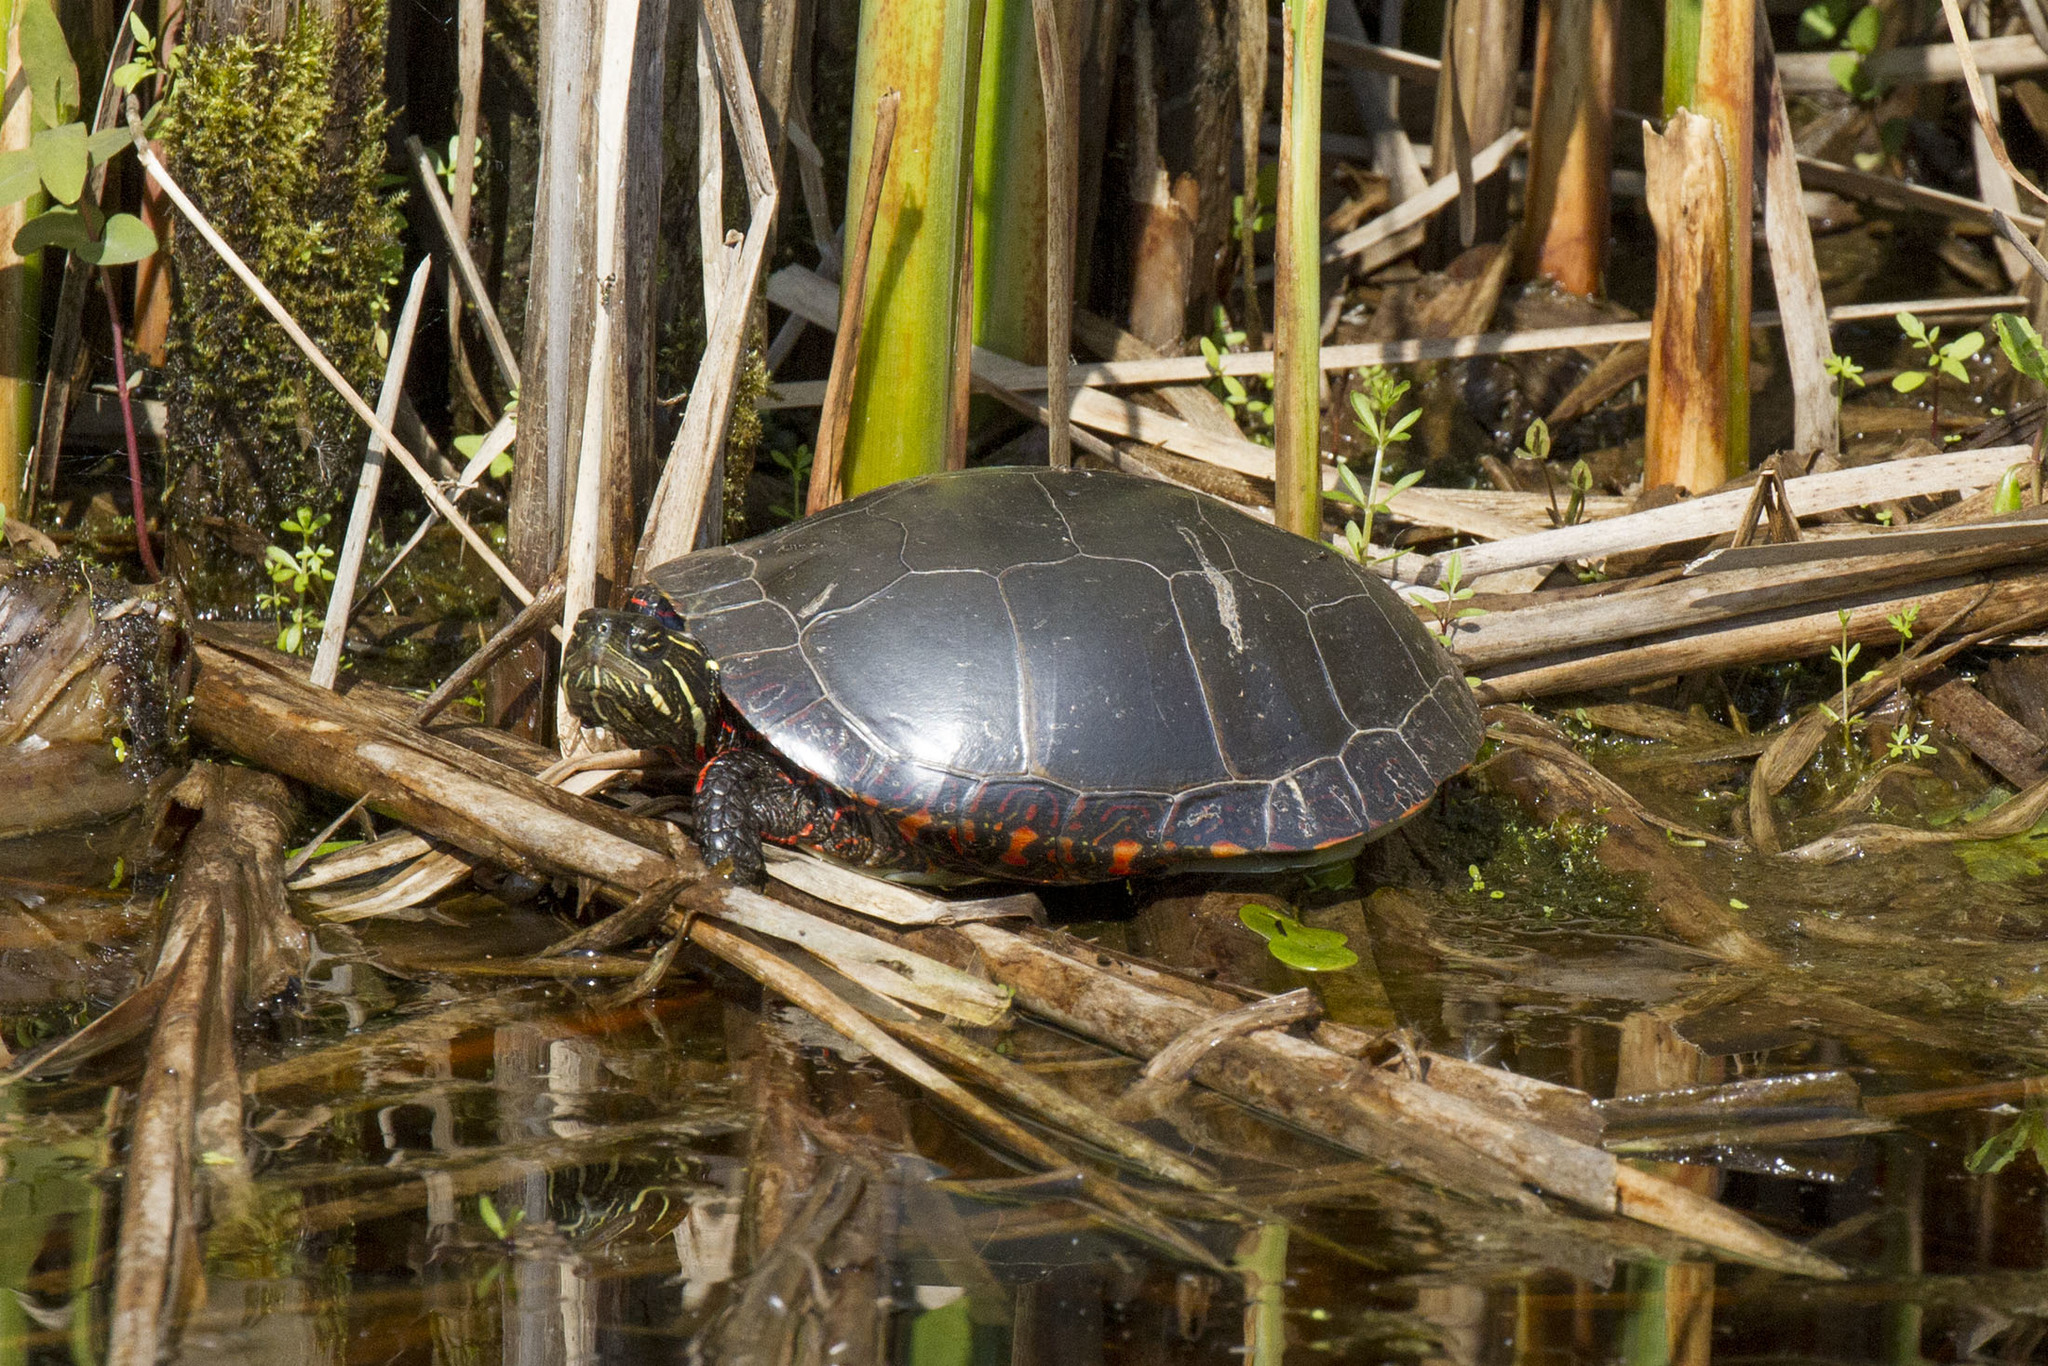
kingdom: Animalia
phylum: Chordata
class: Testudines
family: Emydidae
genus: Chrysemys
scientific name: Chrysemys picta
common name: Painted turtle
